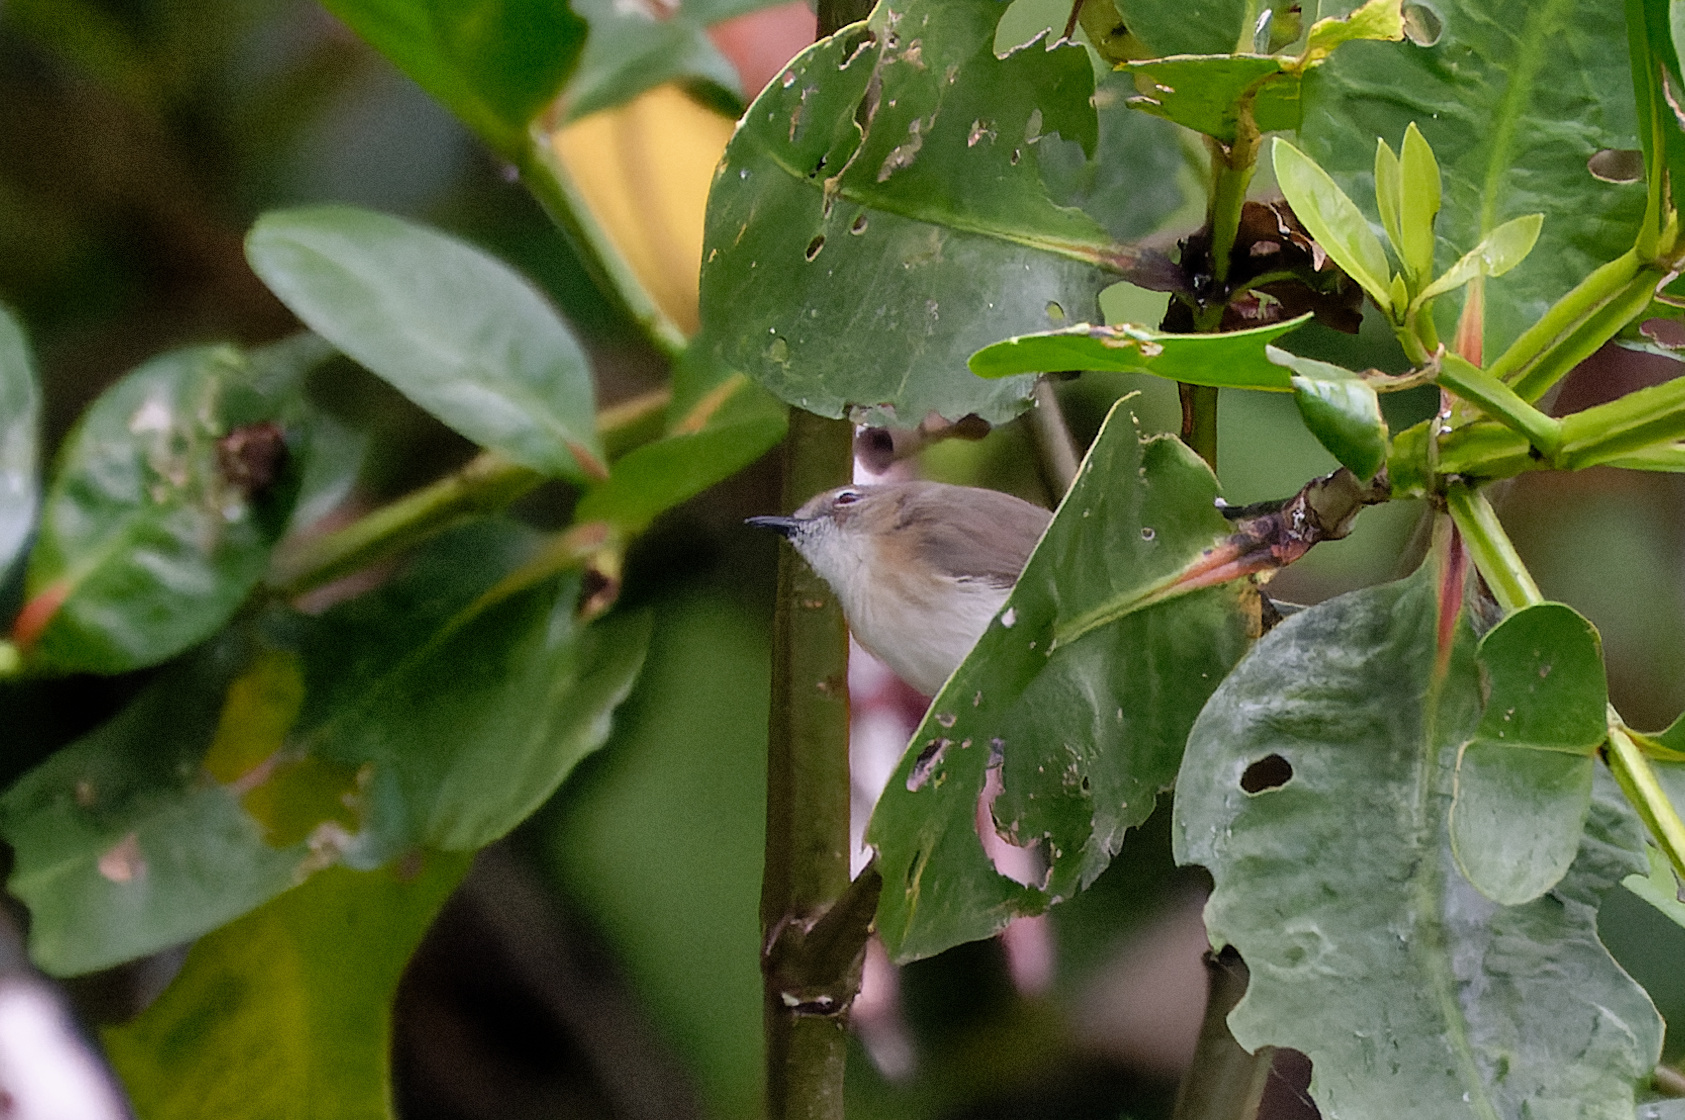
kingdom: Animalia
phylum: Chordata
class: Aves
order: Passeriformes
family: Acanthizidae
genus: Gerygone
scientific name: Gerygone magnirostris
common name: Large-billed gerygone
